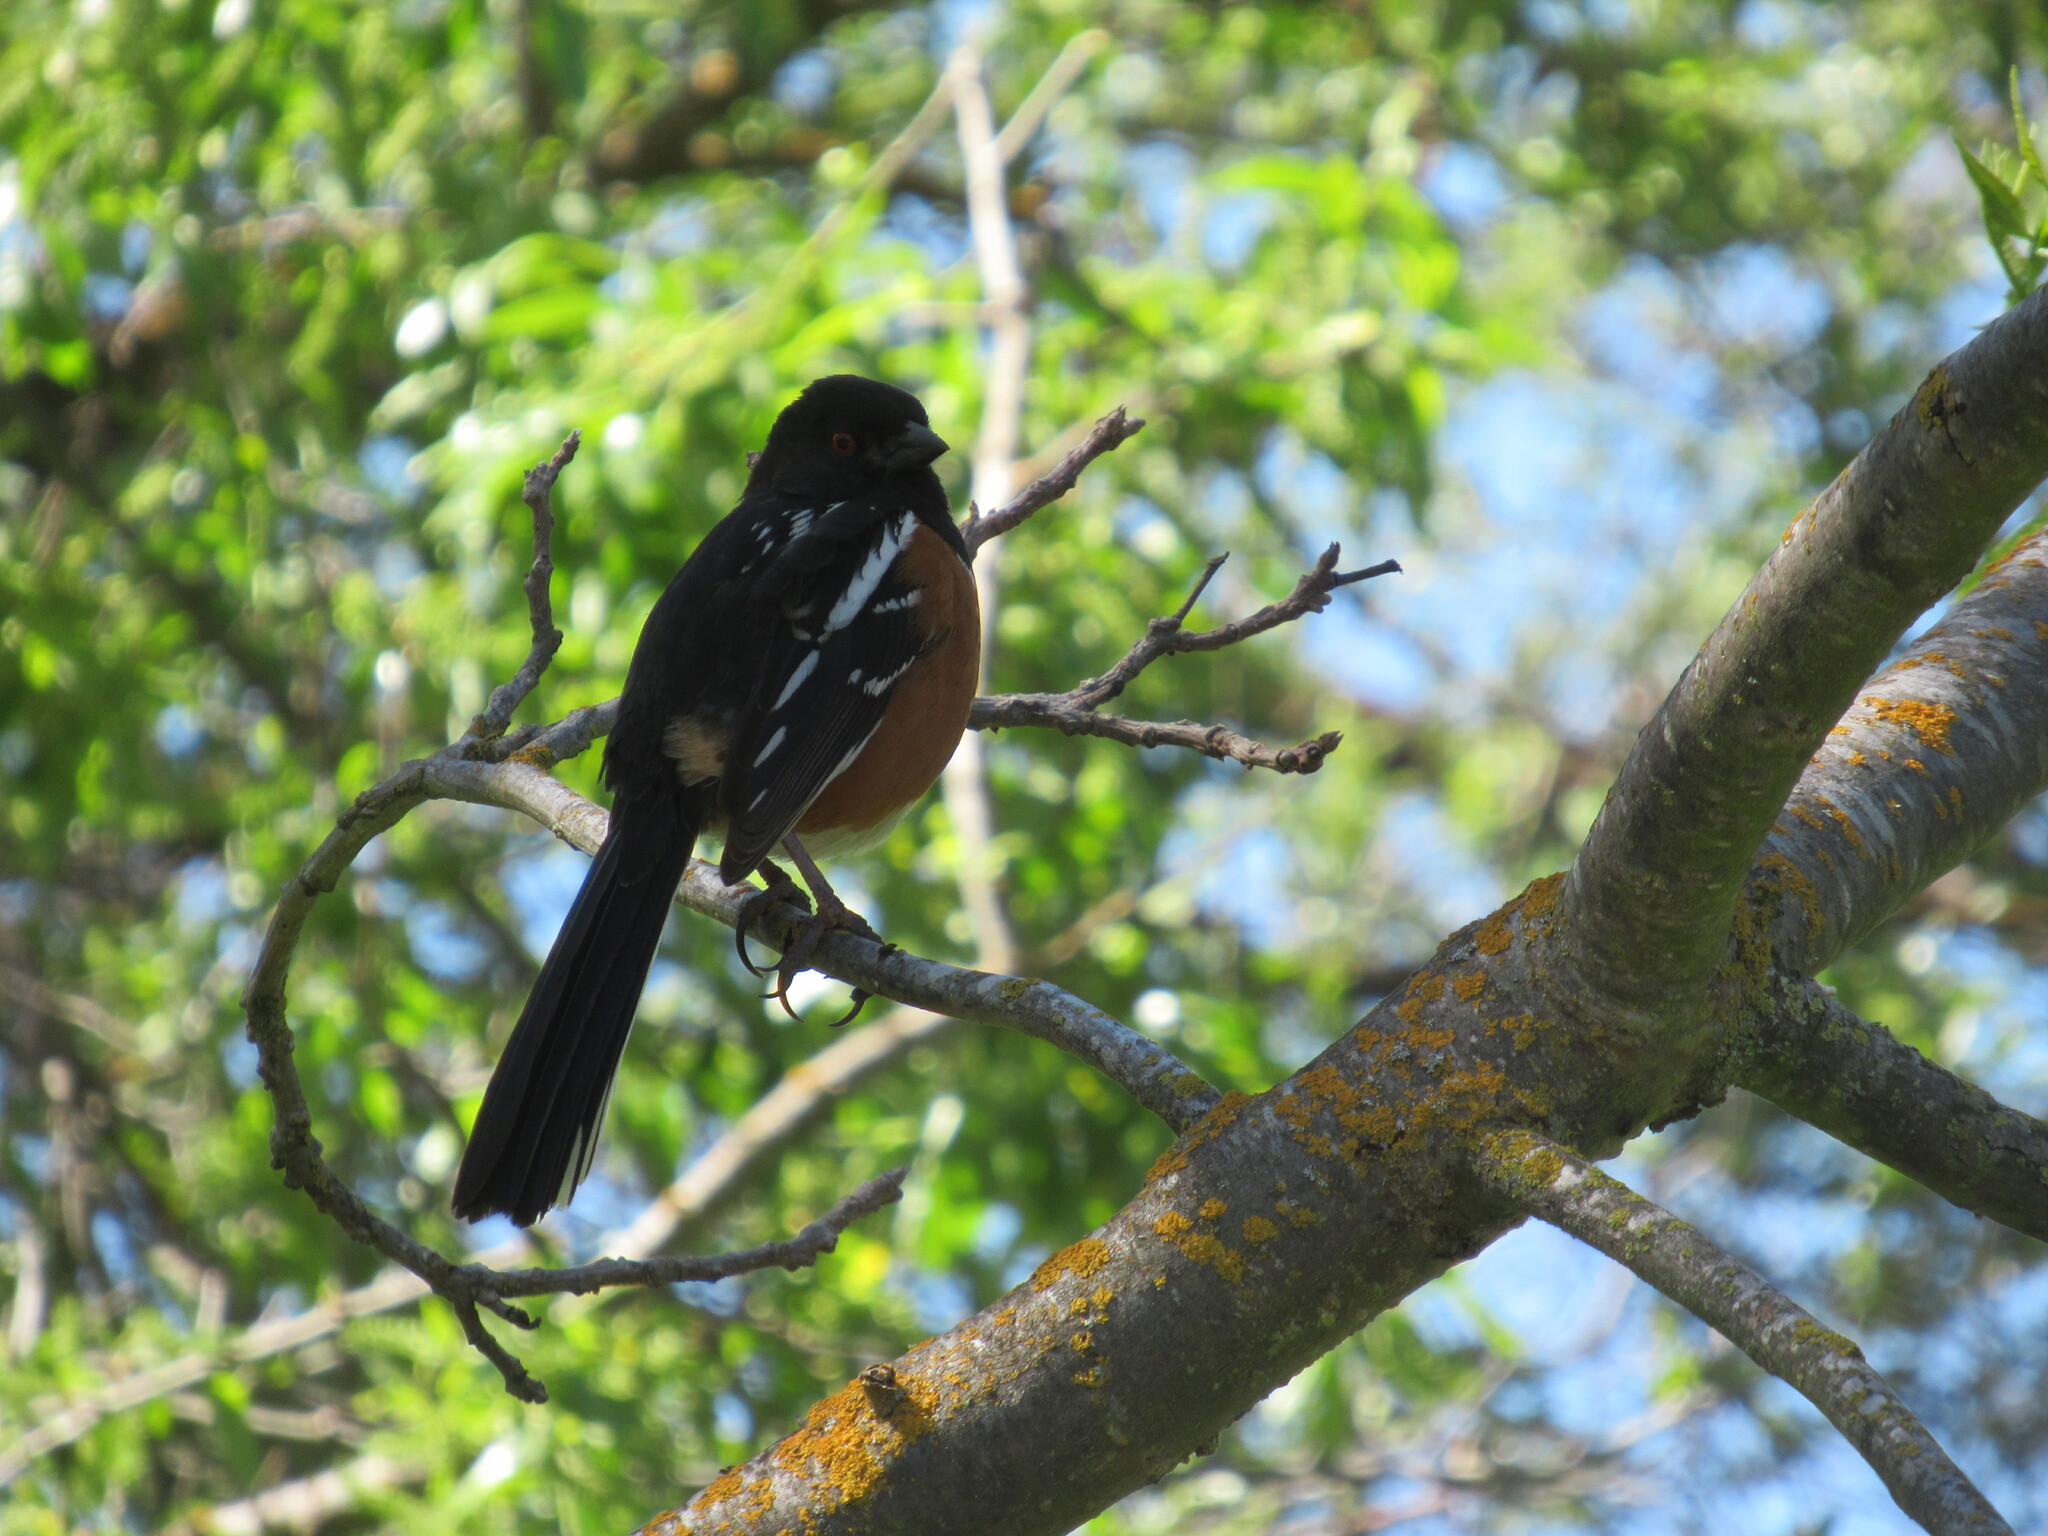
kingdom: Animalia
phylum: Chordata
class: Aves
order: Passeriformes
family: Passerellidae
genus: Pipilo
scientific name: Pipilo maculatus
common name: Spotted towhee
